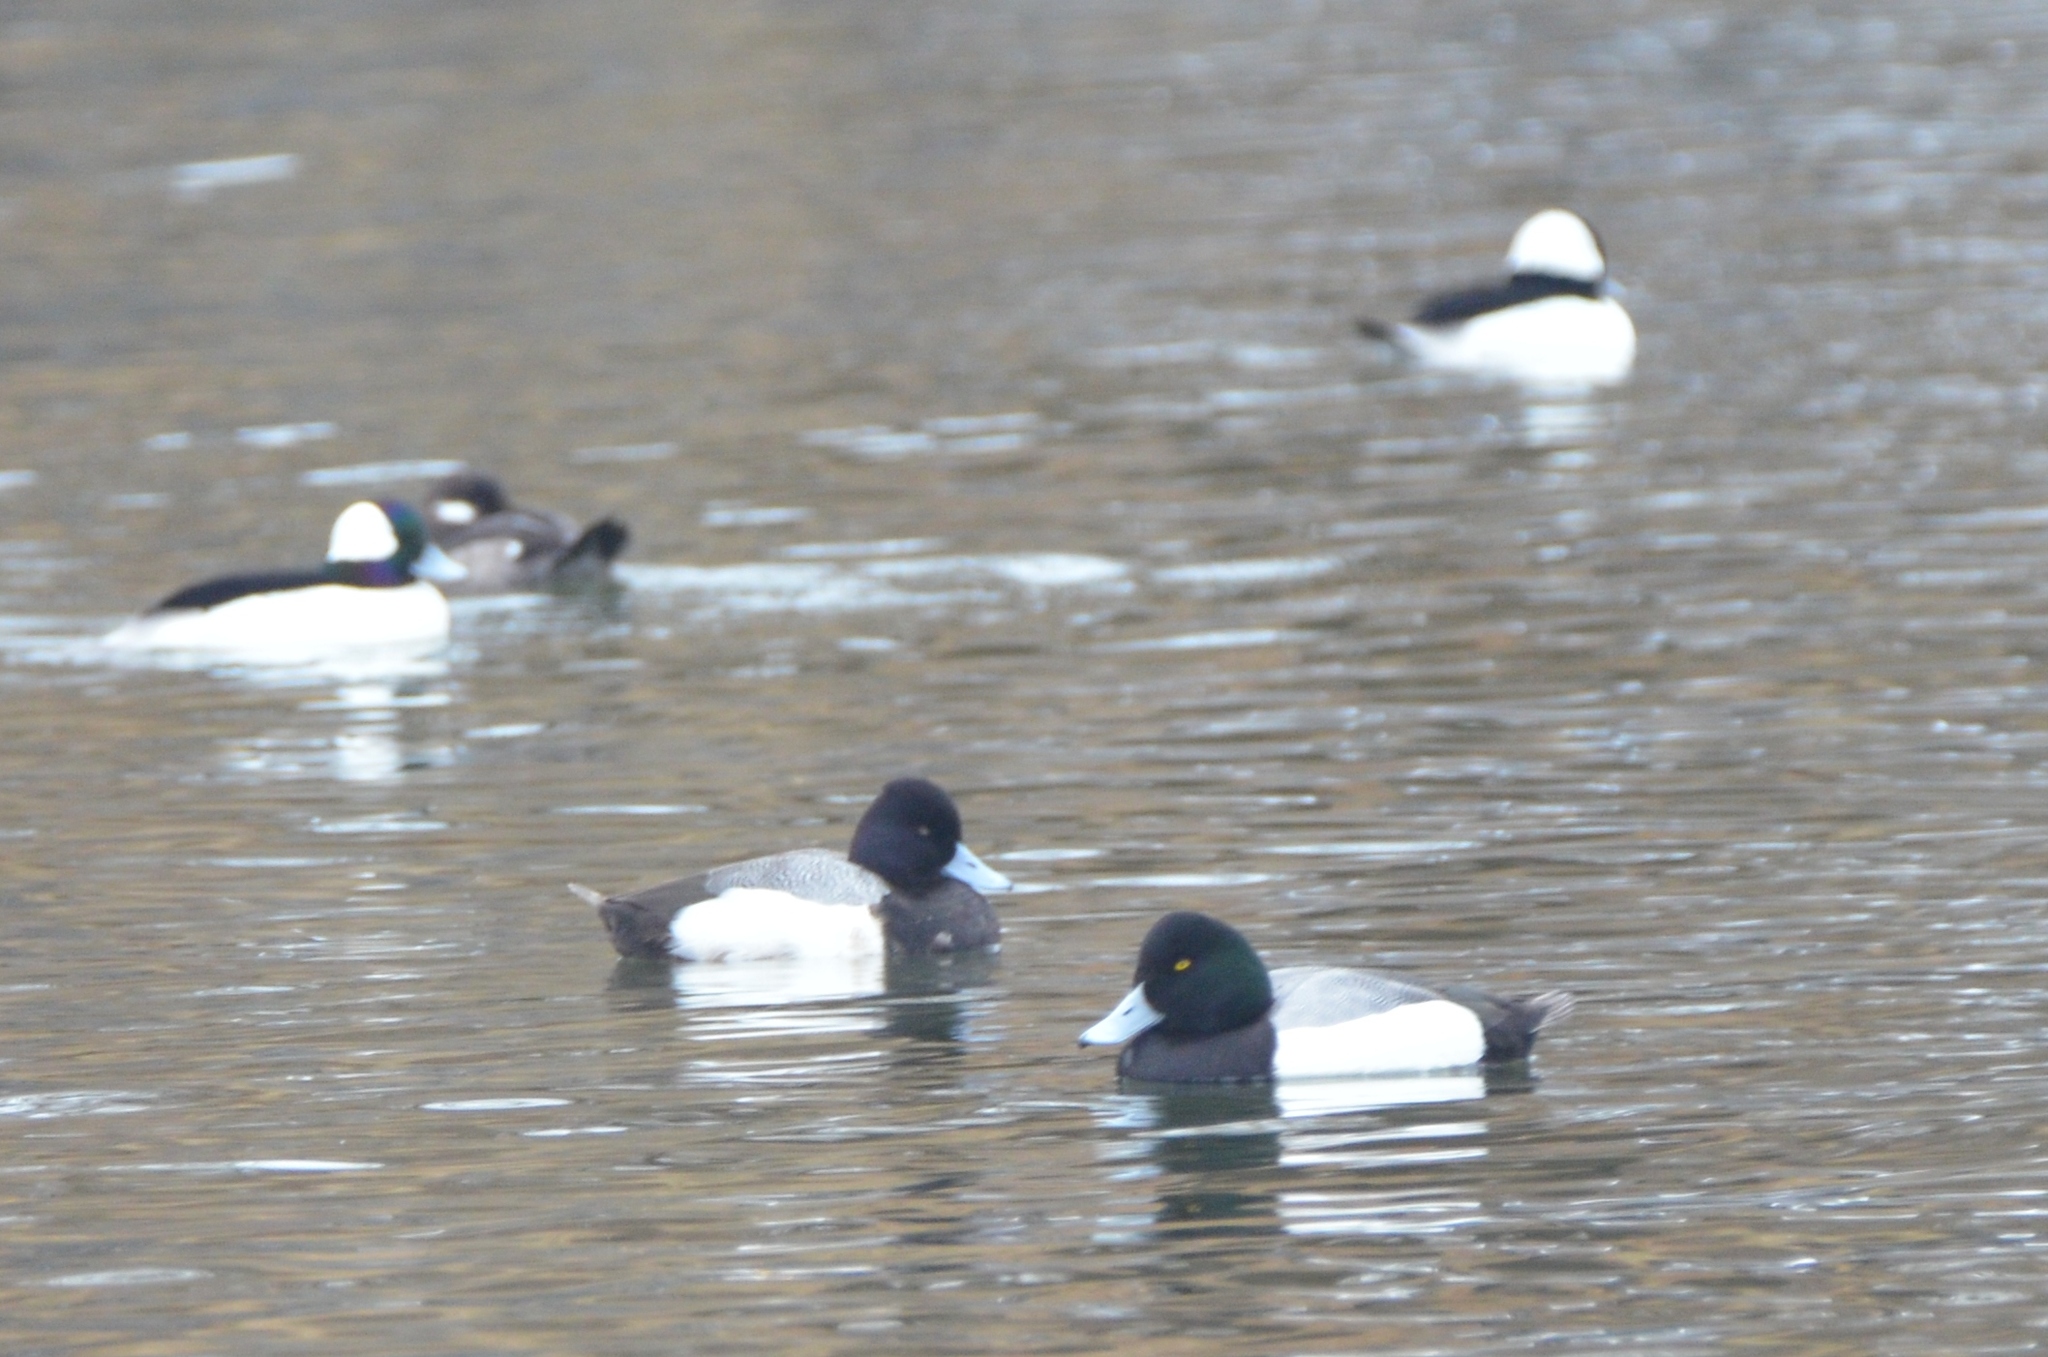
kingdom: Animalia
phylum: Chordata
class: Aves
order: Anseriformes
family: Anatidae
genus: Aythya
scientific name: Aythya affinis
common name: Lesser scaup
